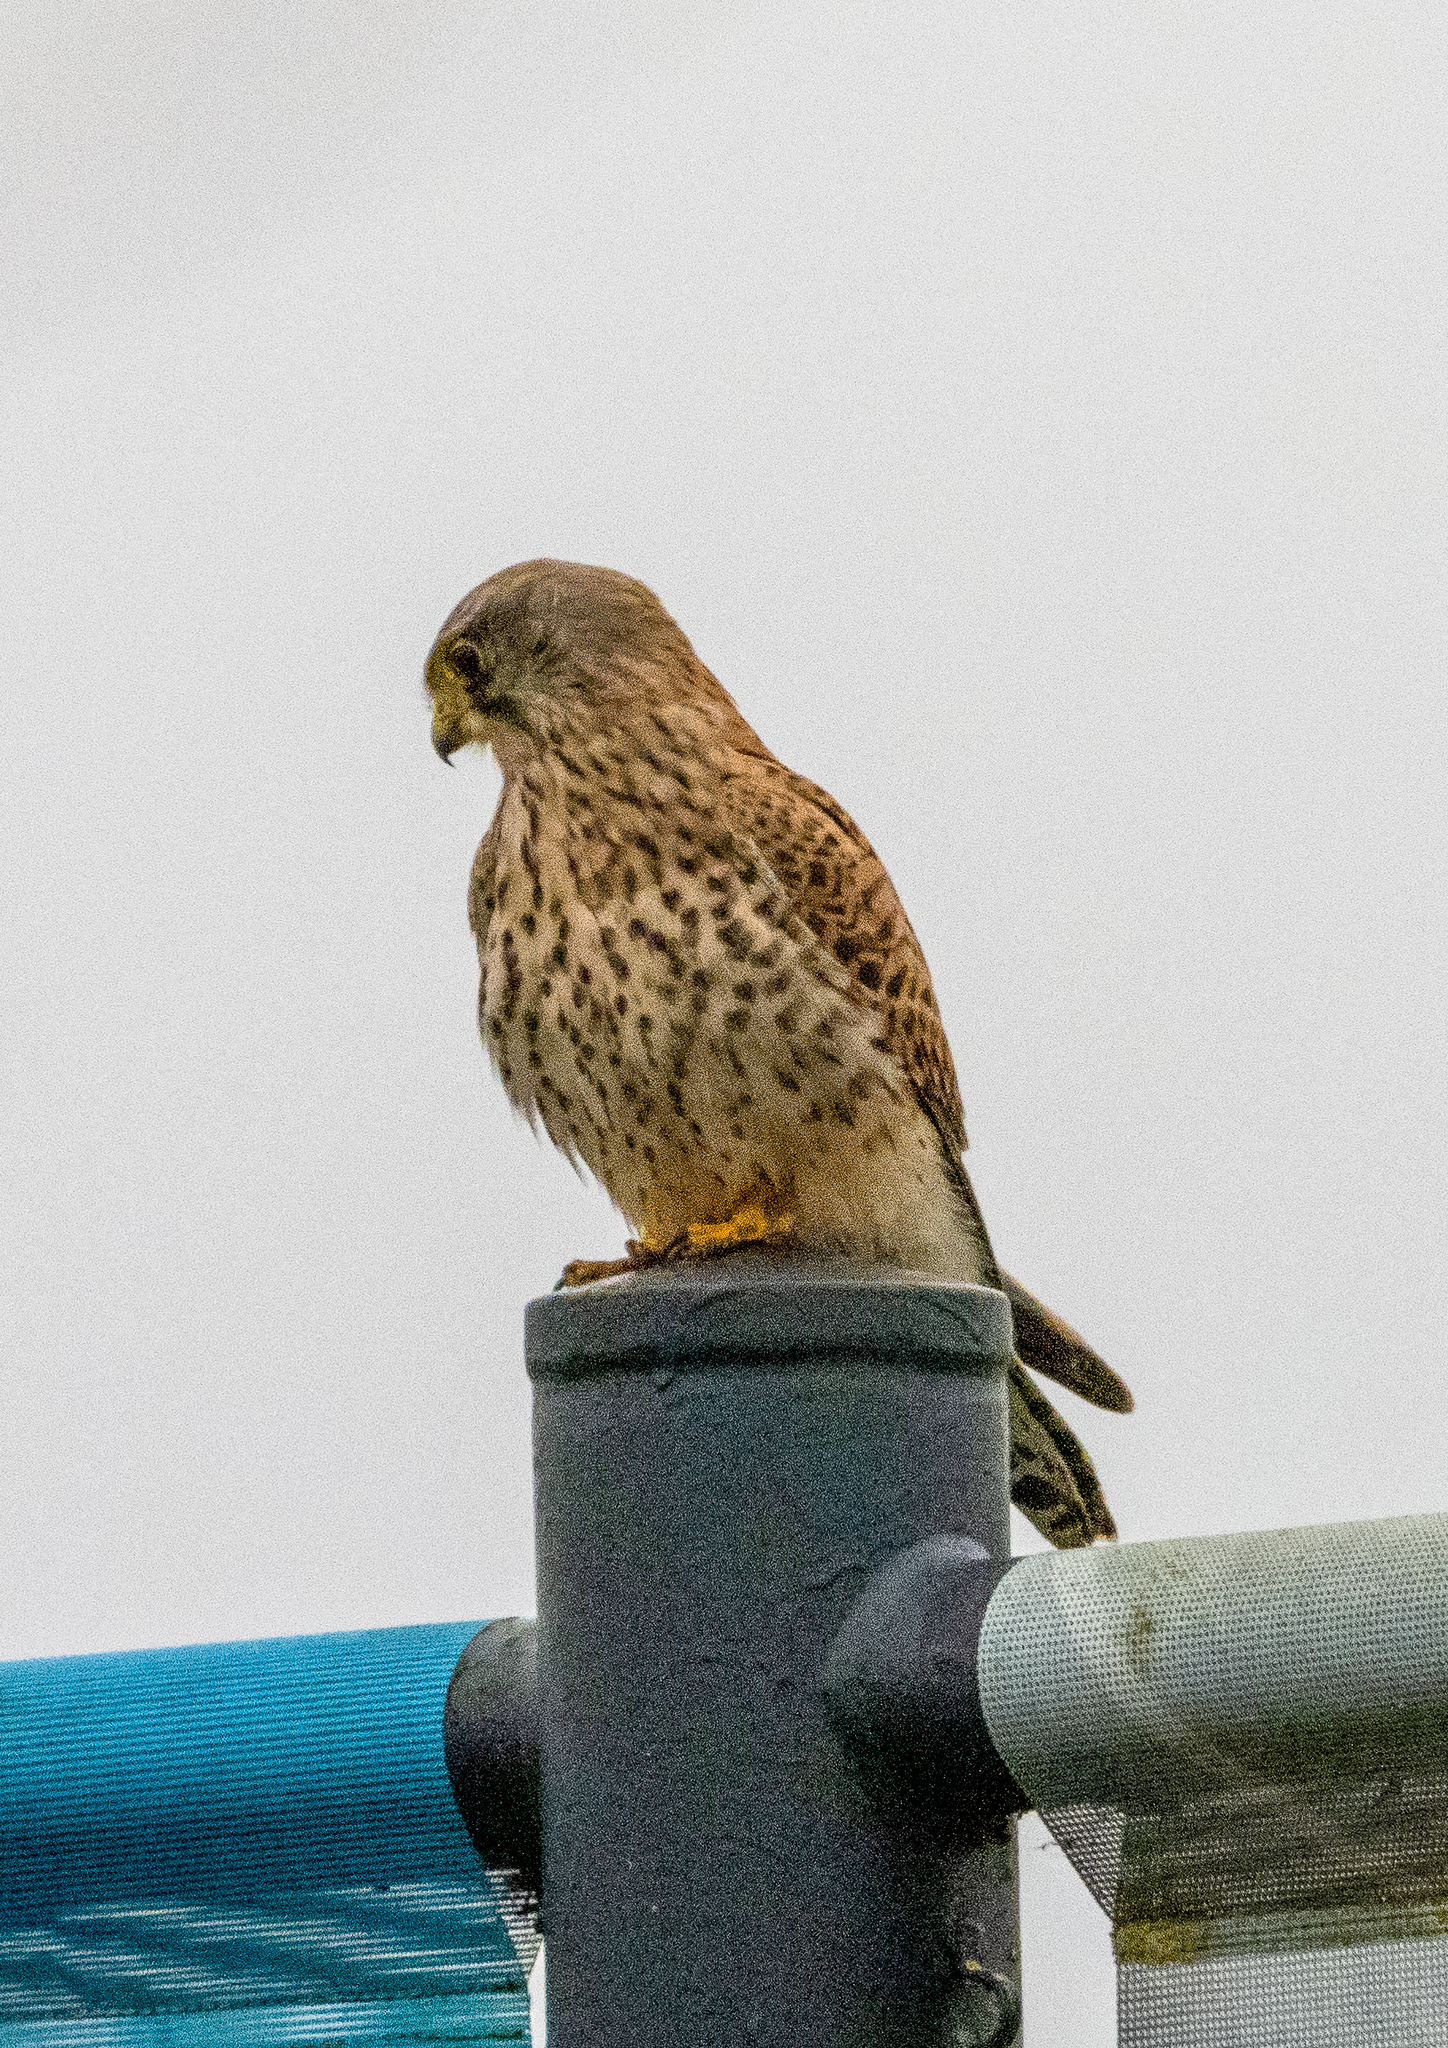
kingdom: Animalia
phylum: Chordata
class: Aves
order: Falconiformes
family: Falconidae
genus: Falco
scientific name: Falco tinnunculus
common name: Common kestrel
